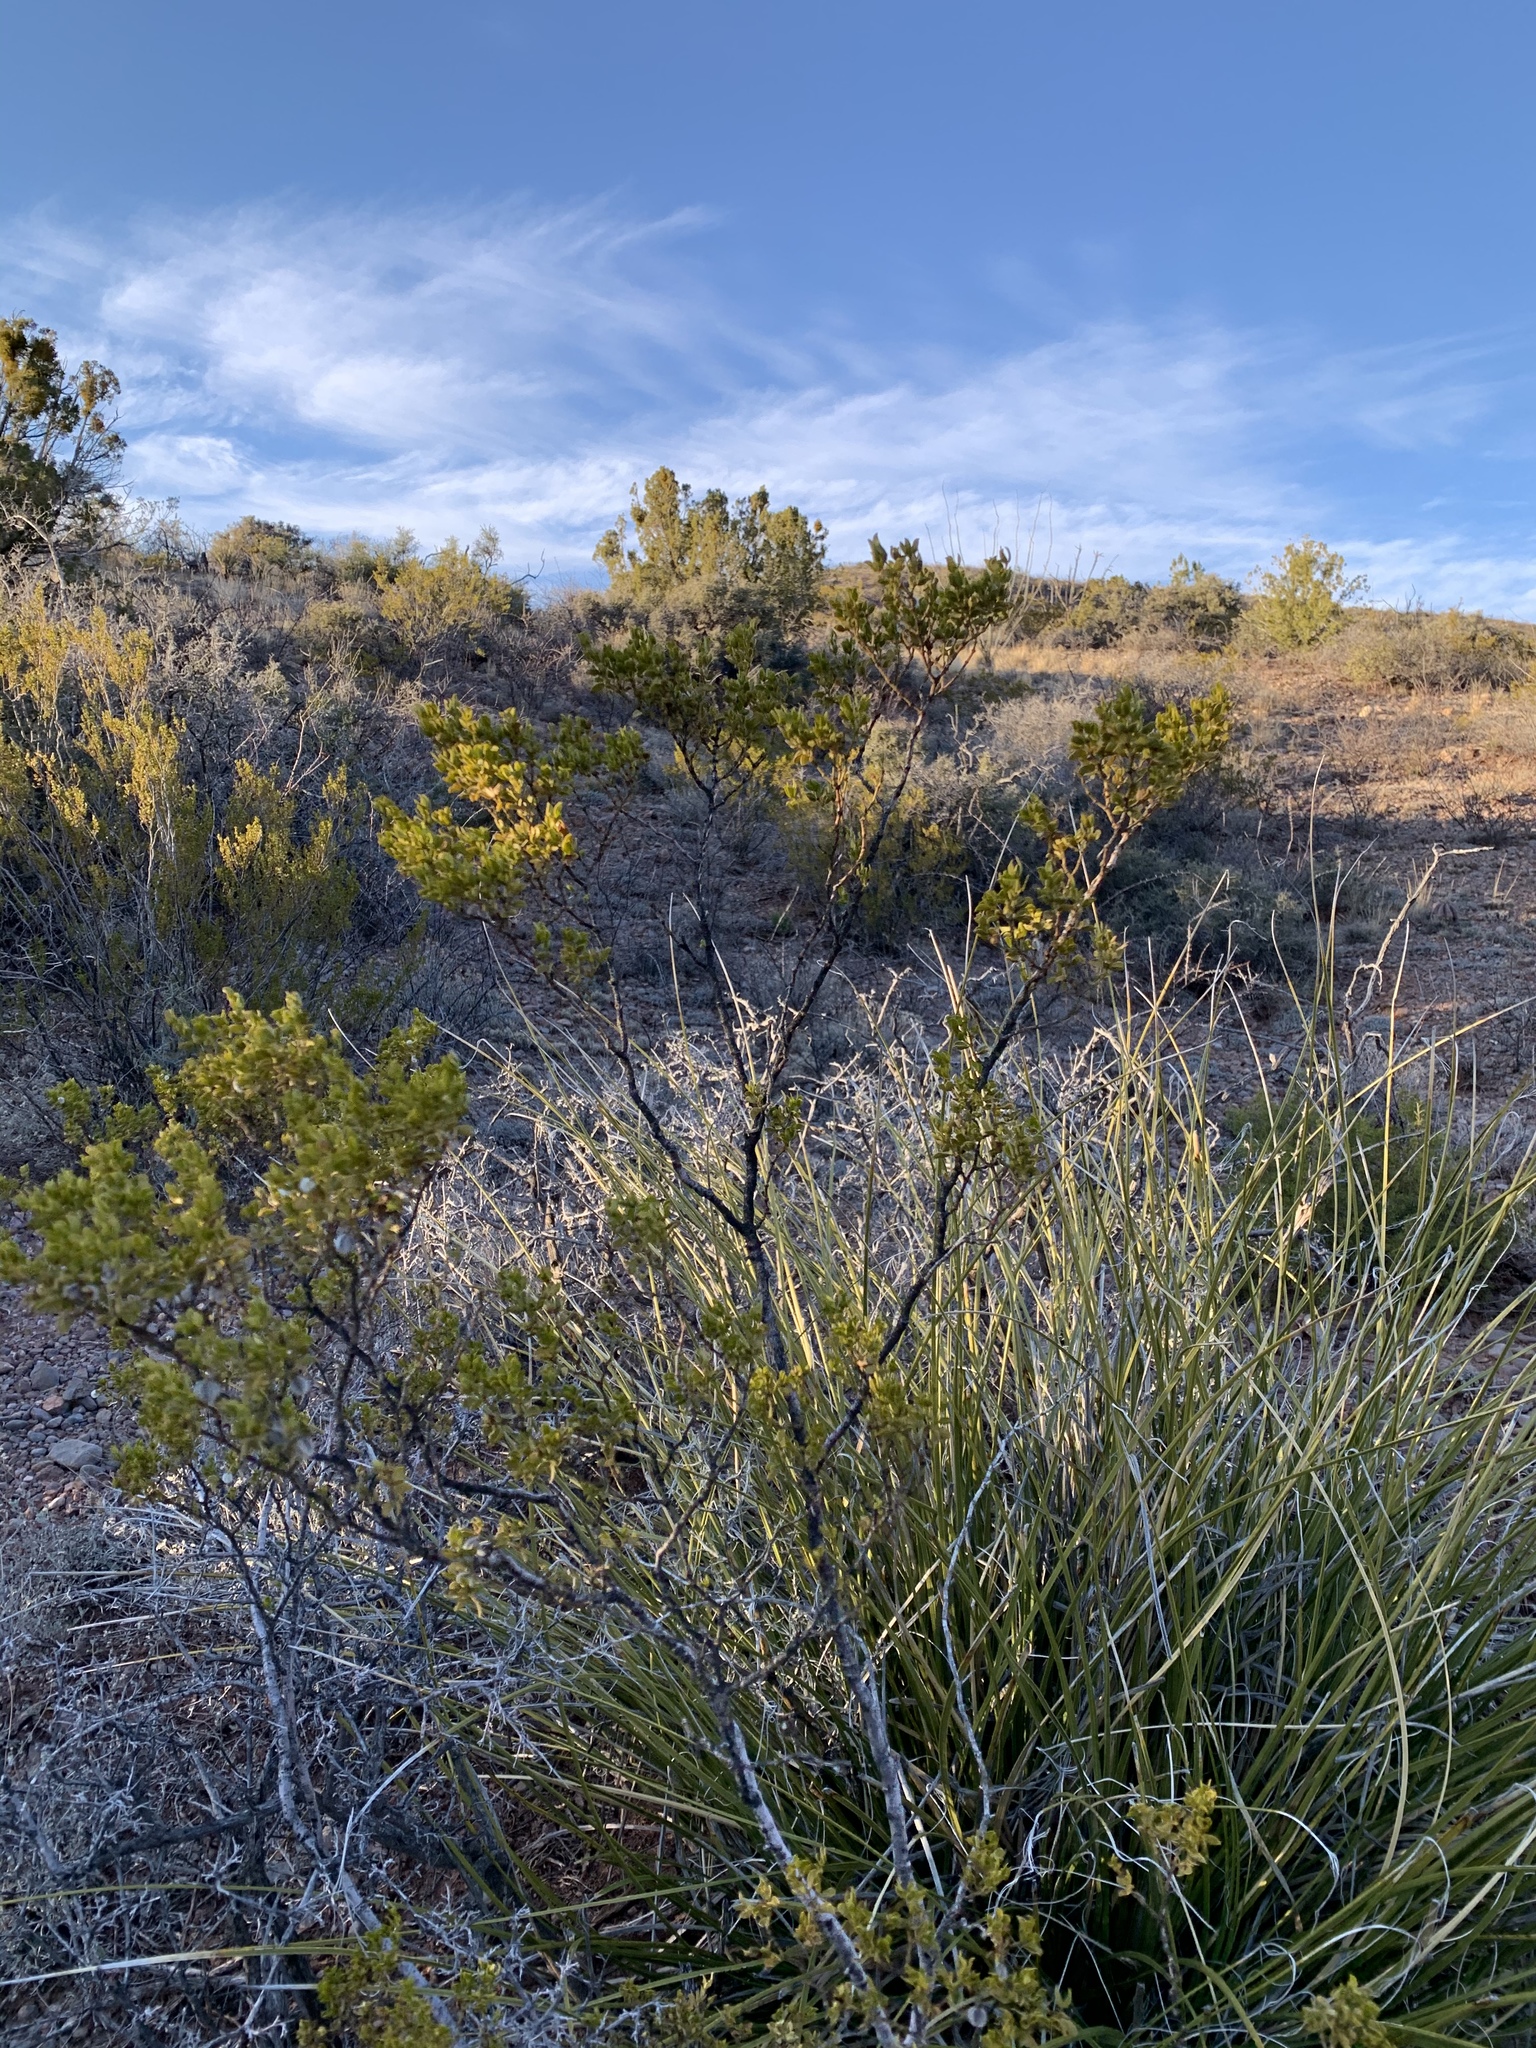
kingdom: Plantae
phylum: Tracheophyta
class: Magnoliopsida
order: Zygophyllales
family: Zygophyllaceae
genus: Larrea
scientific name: Larrea tridentata
